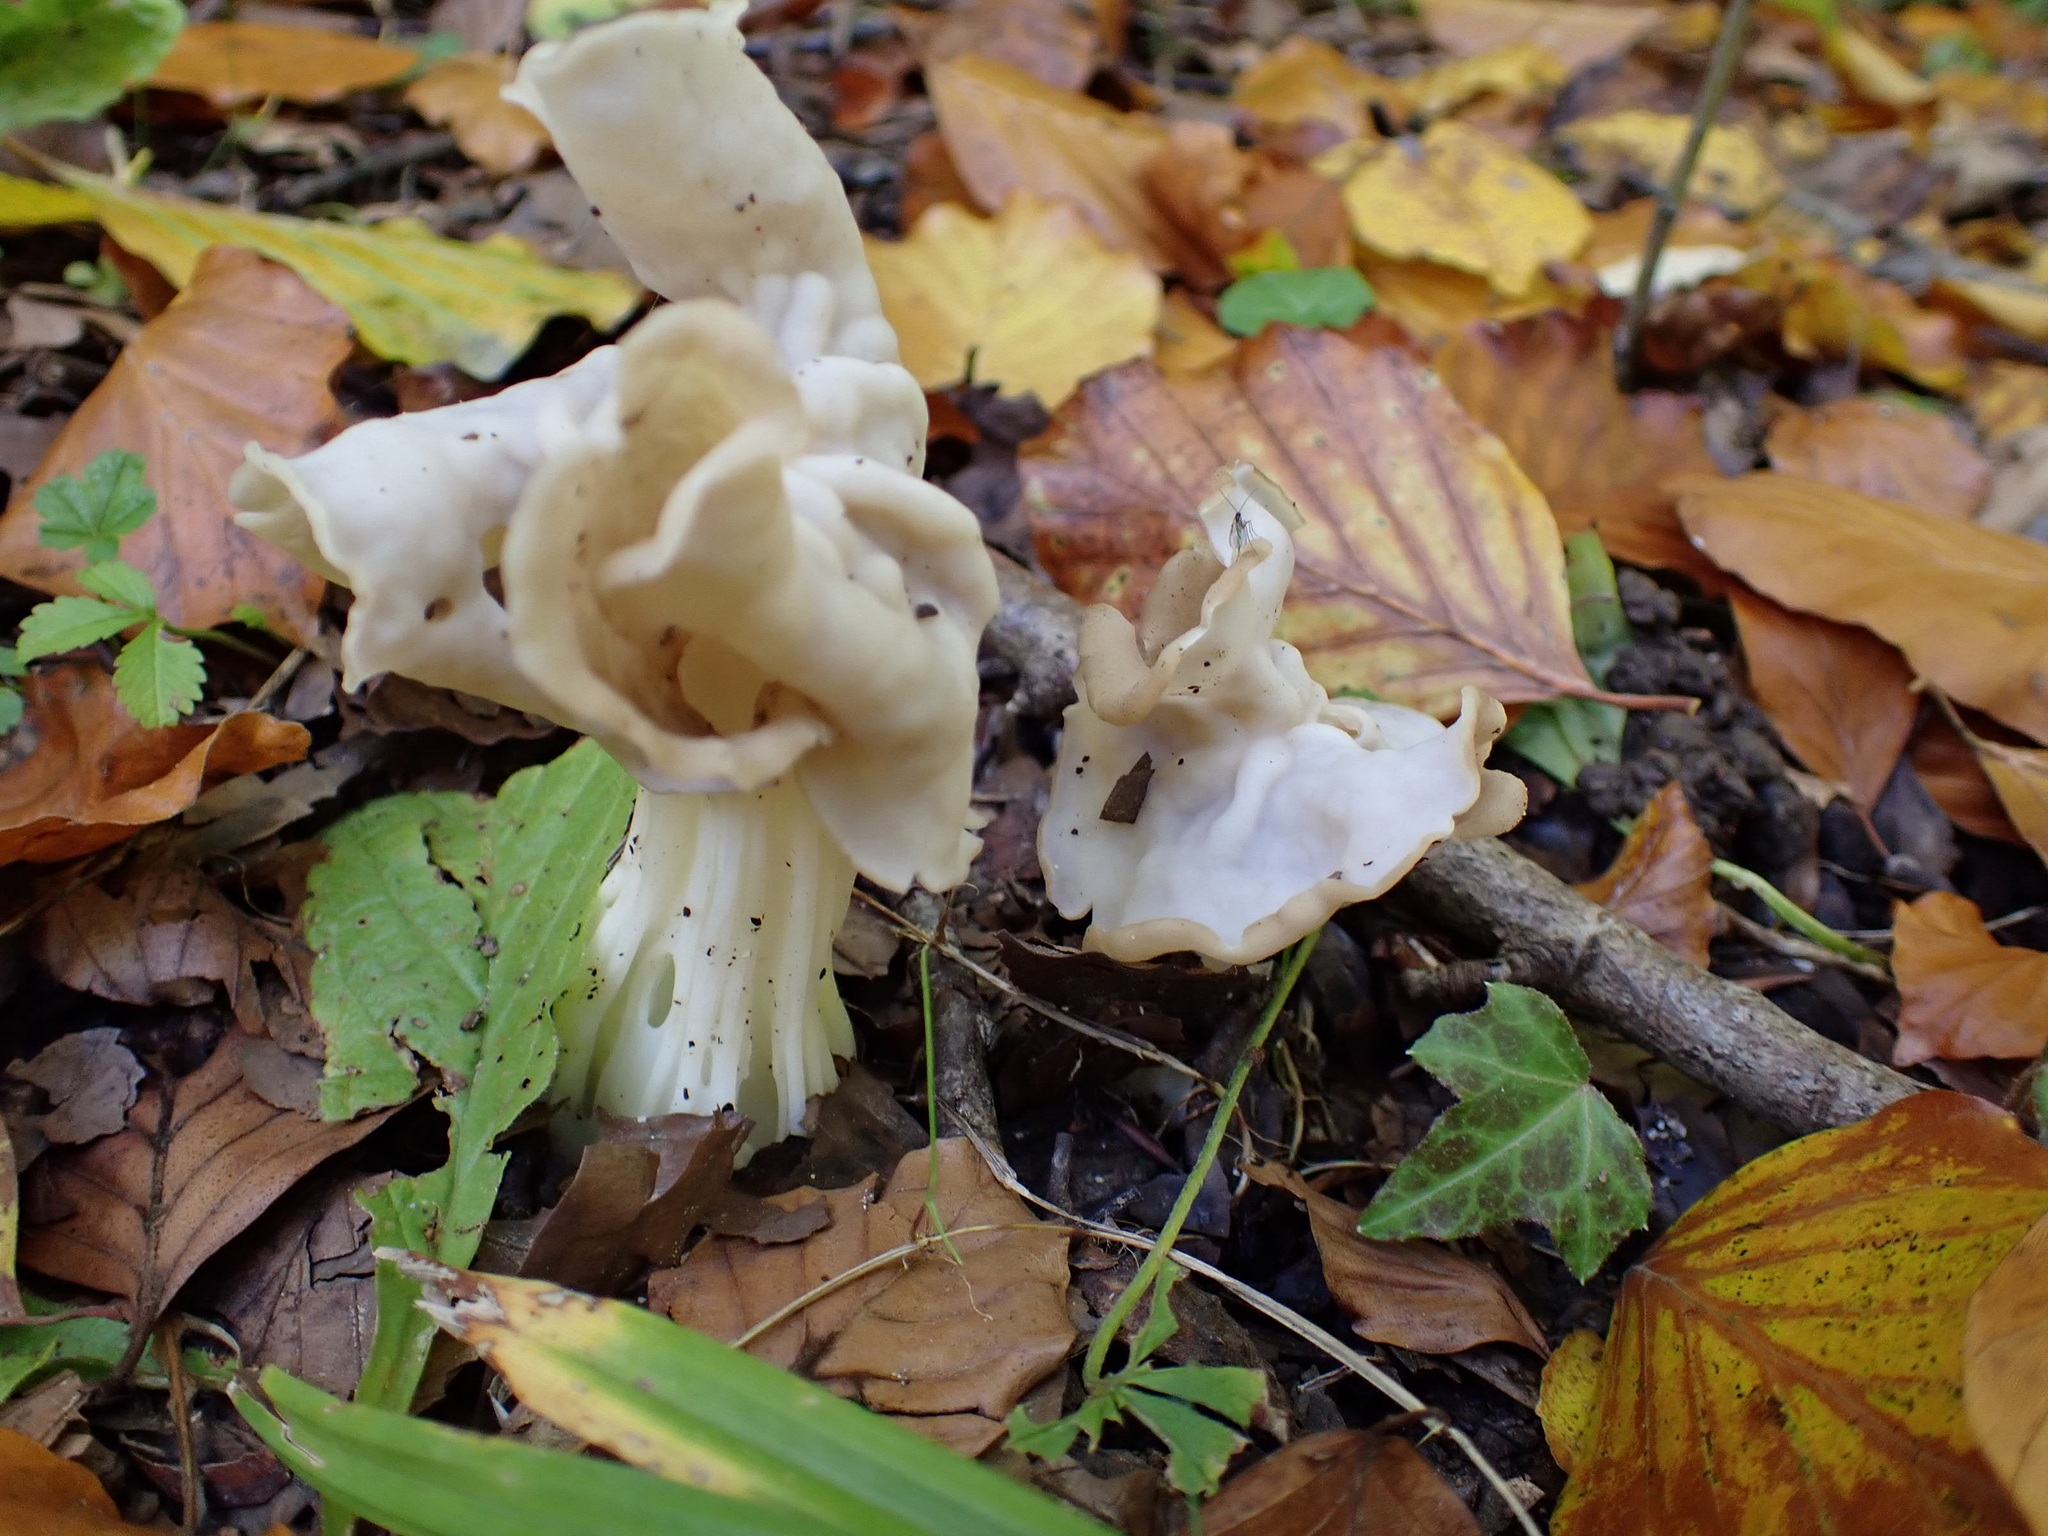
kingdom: Fungi
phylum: Ascomycota
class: Pezizomycetes
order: Pezizales
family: Helvellaceae
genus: Helvella
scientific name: Helvella crispa
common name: White saddle
